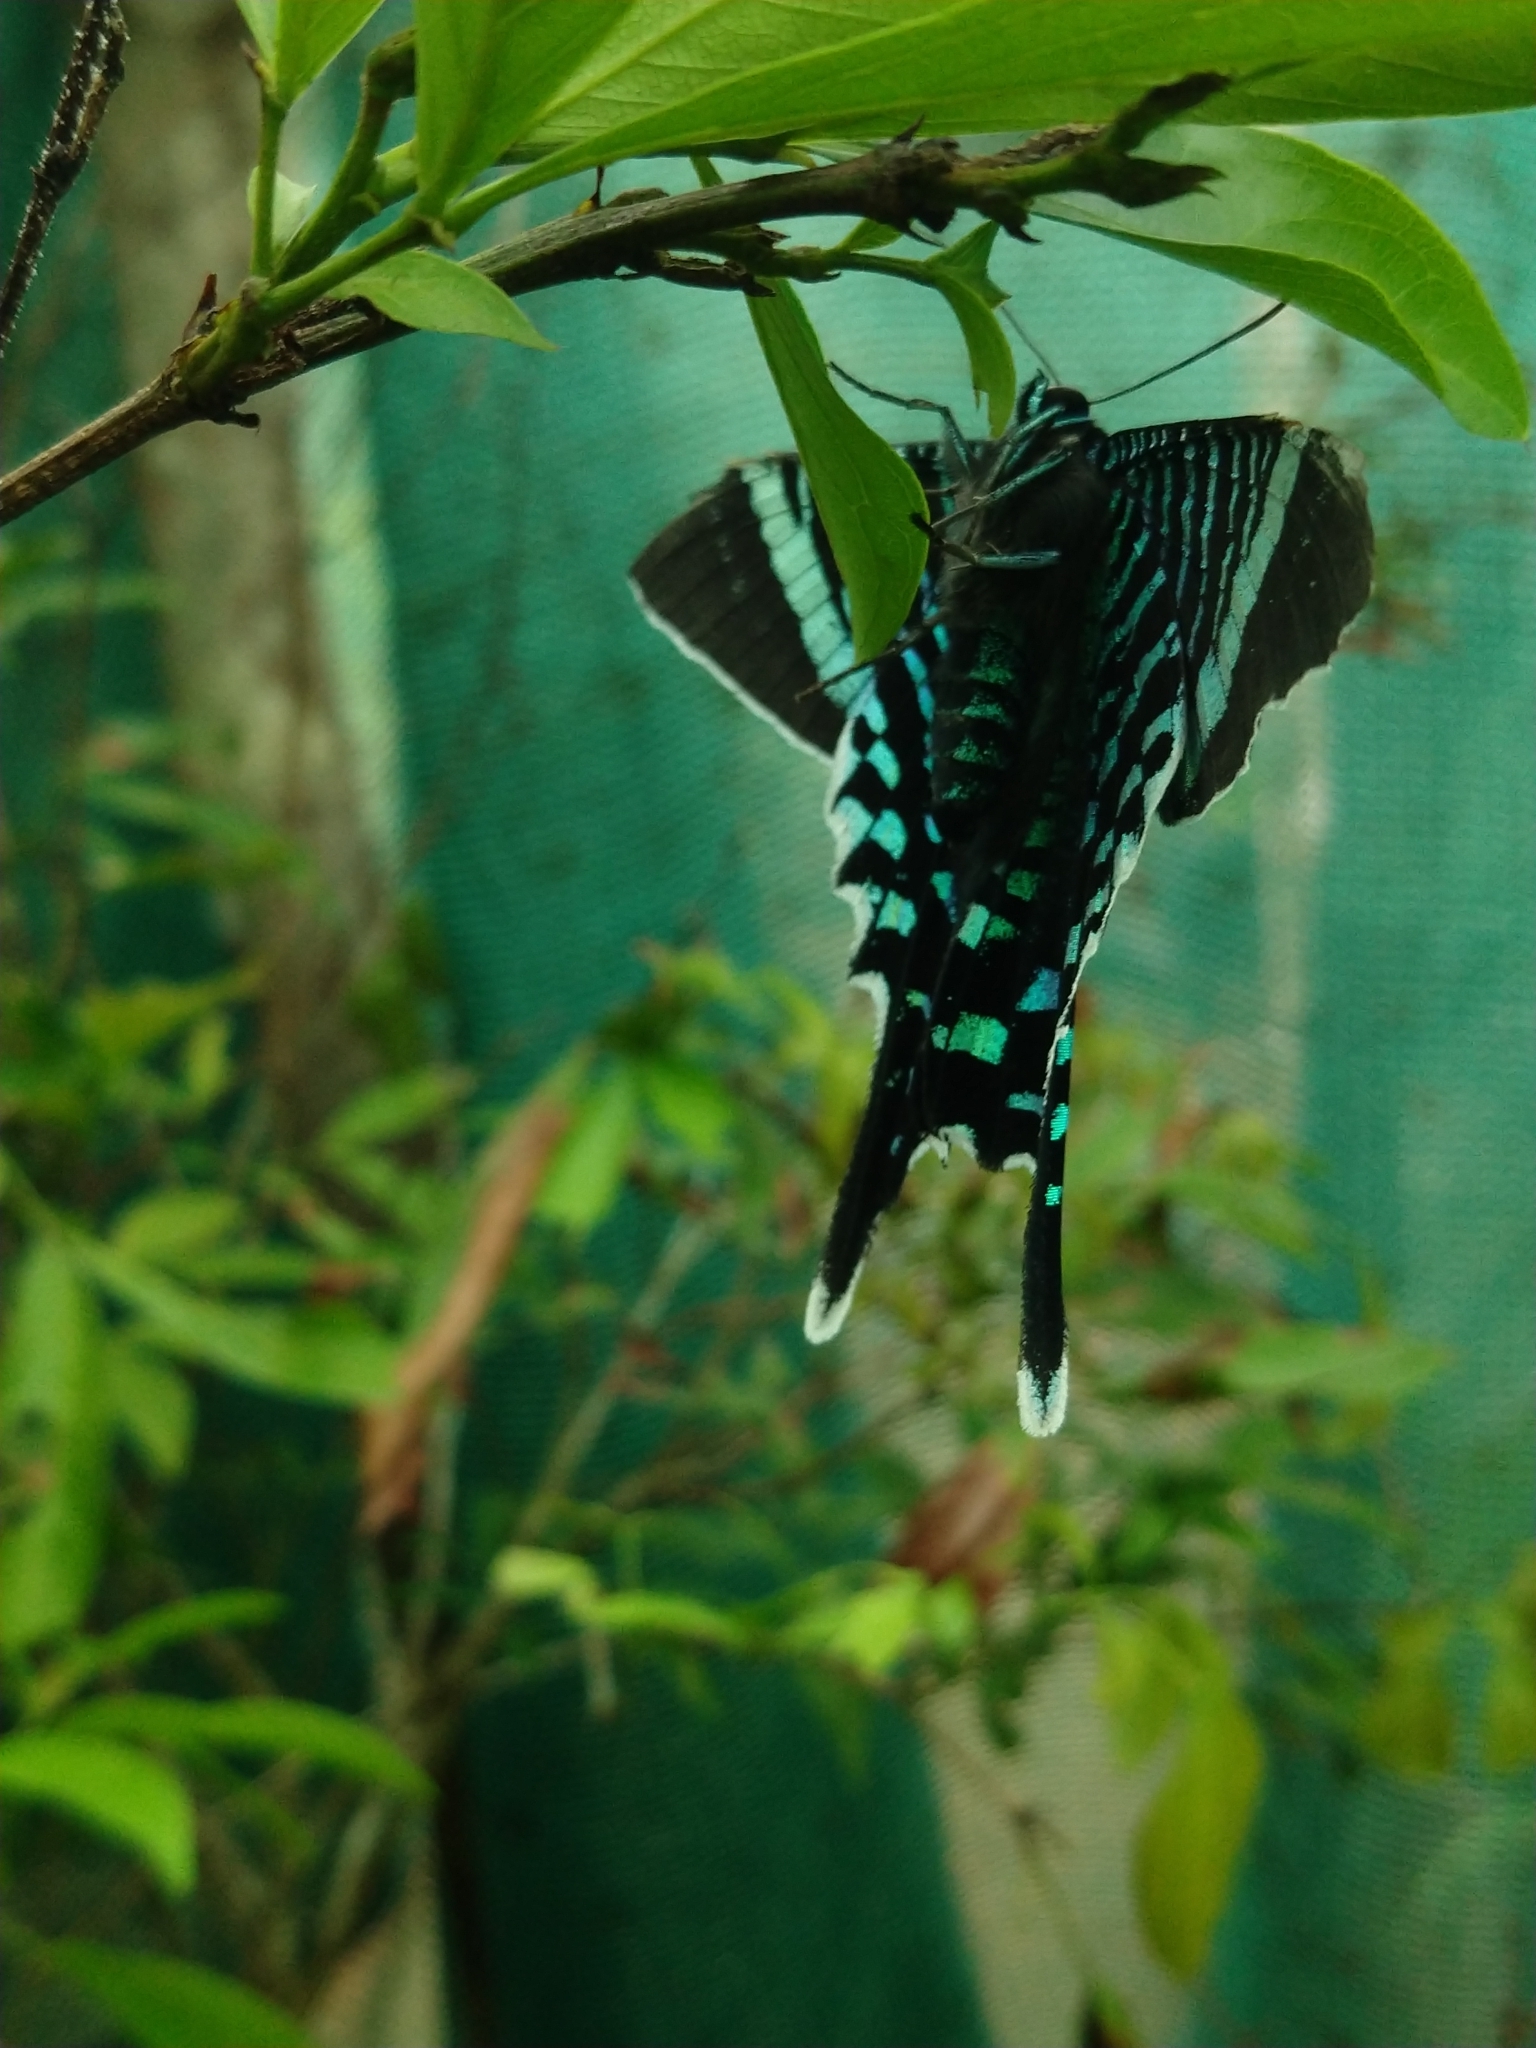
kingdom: Animalia
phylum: Arthropoda
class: Insecta
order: Lepidoptera
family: Uraniidae
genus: Urania
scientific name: Urania fulgens
